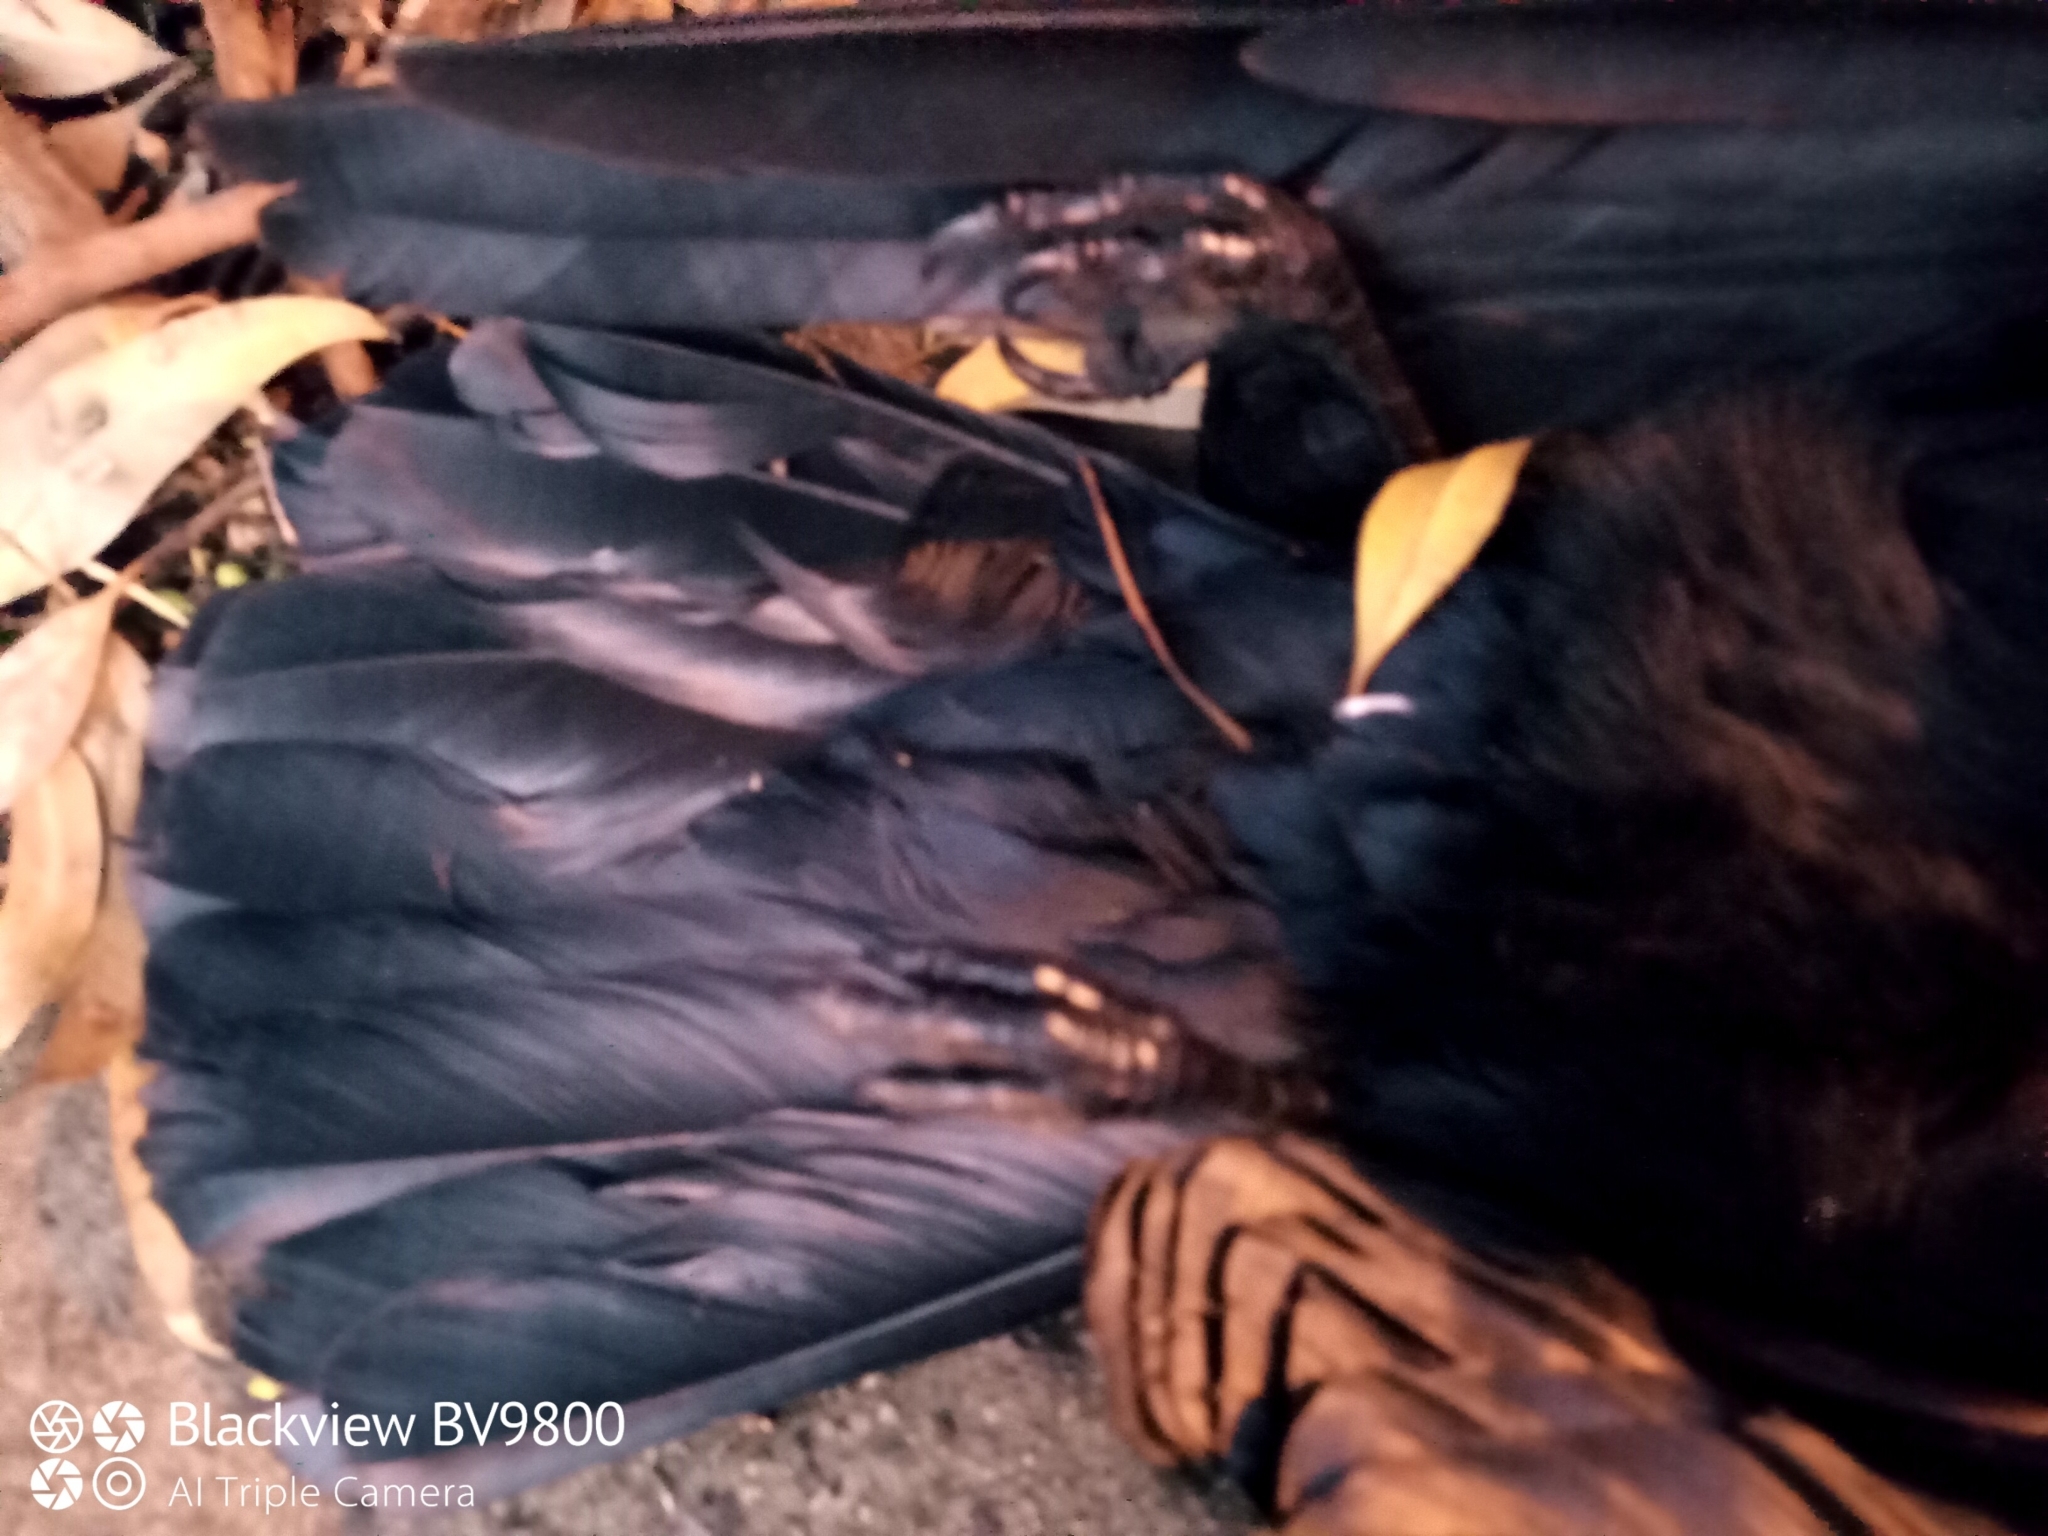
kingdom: Animalia
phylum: Chordata
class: Aves
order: Passeriformes
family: Corvidae
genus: Corvus
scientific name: Corvus coronoides
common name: Australian raven
